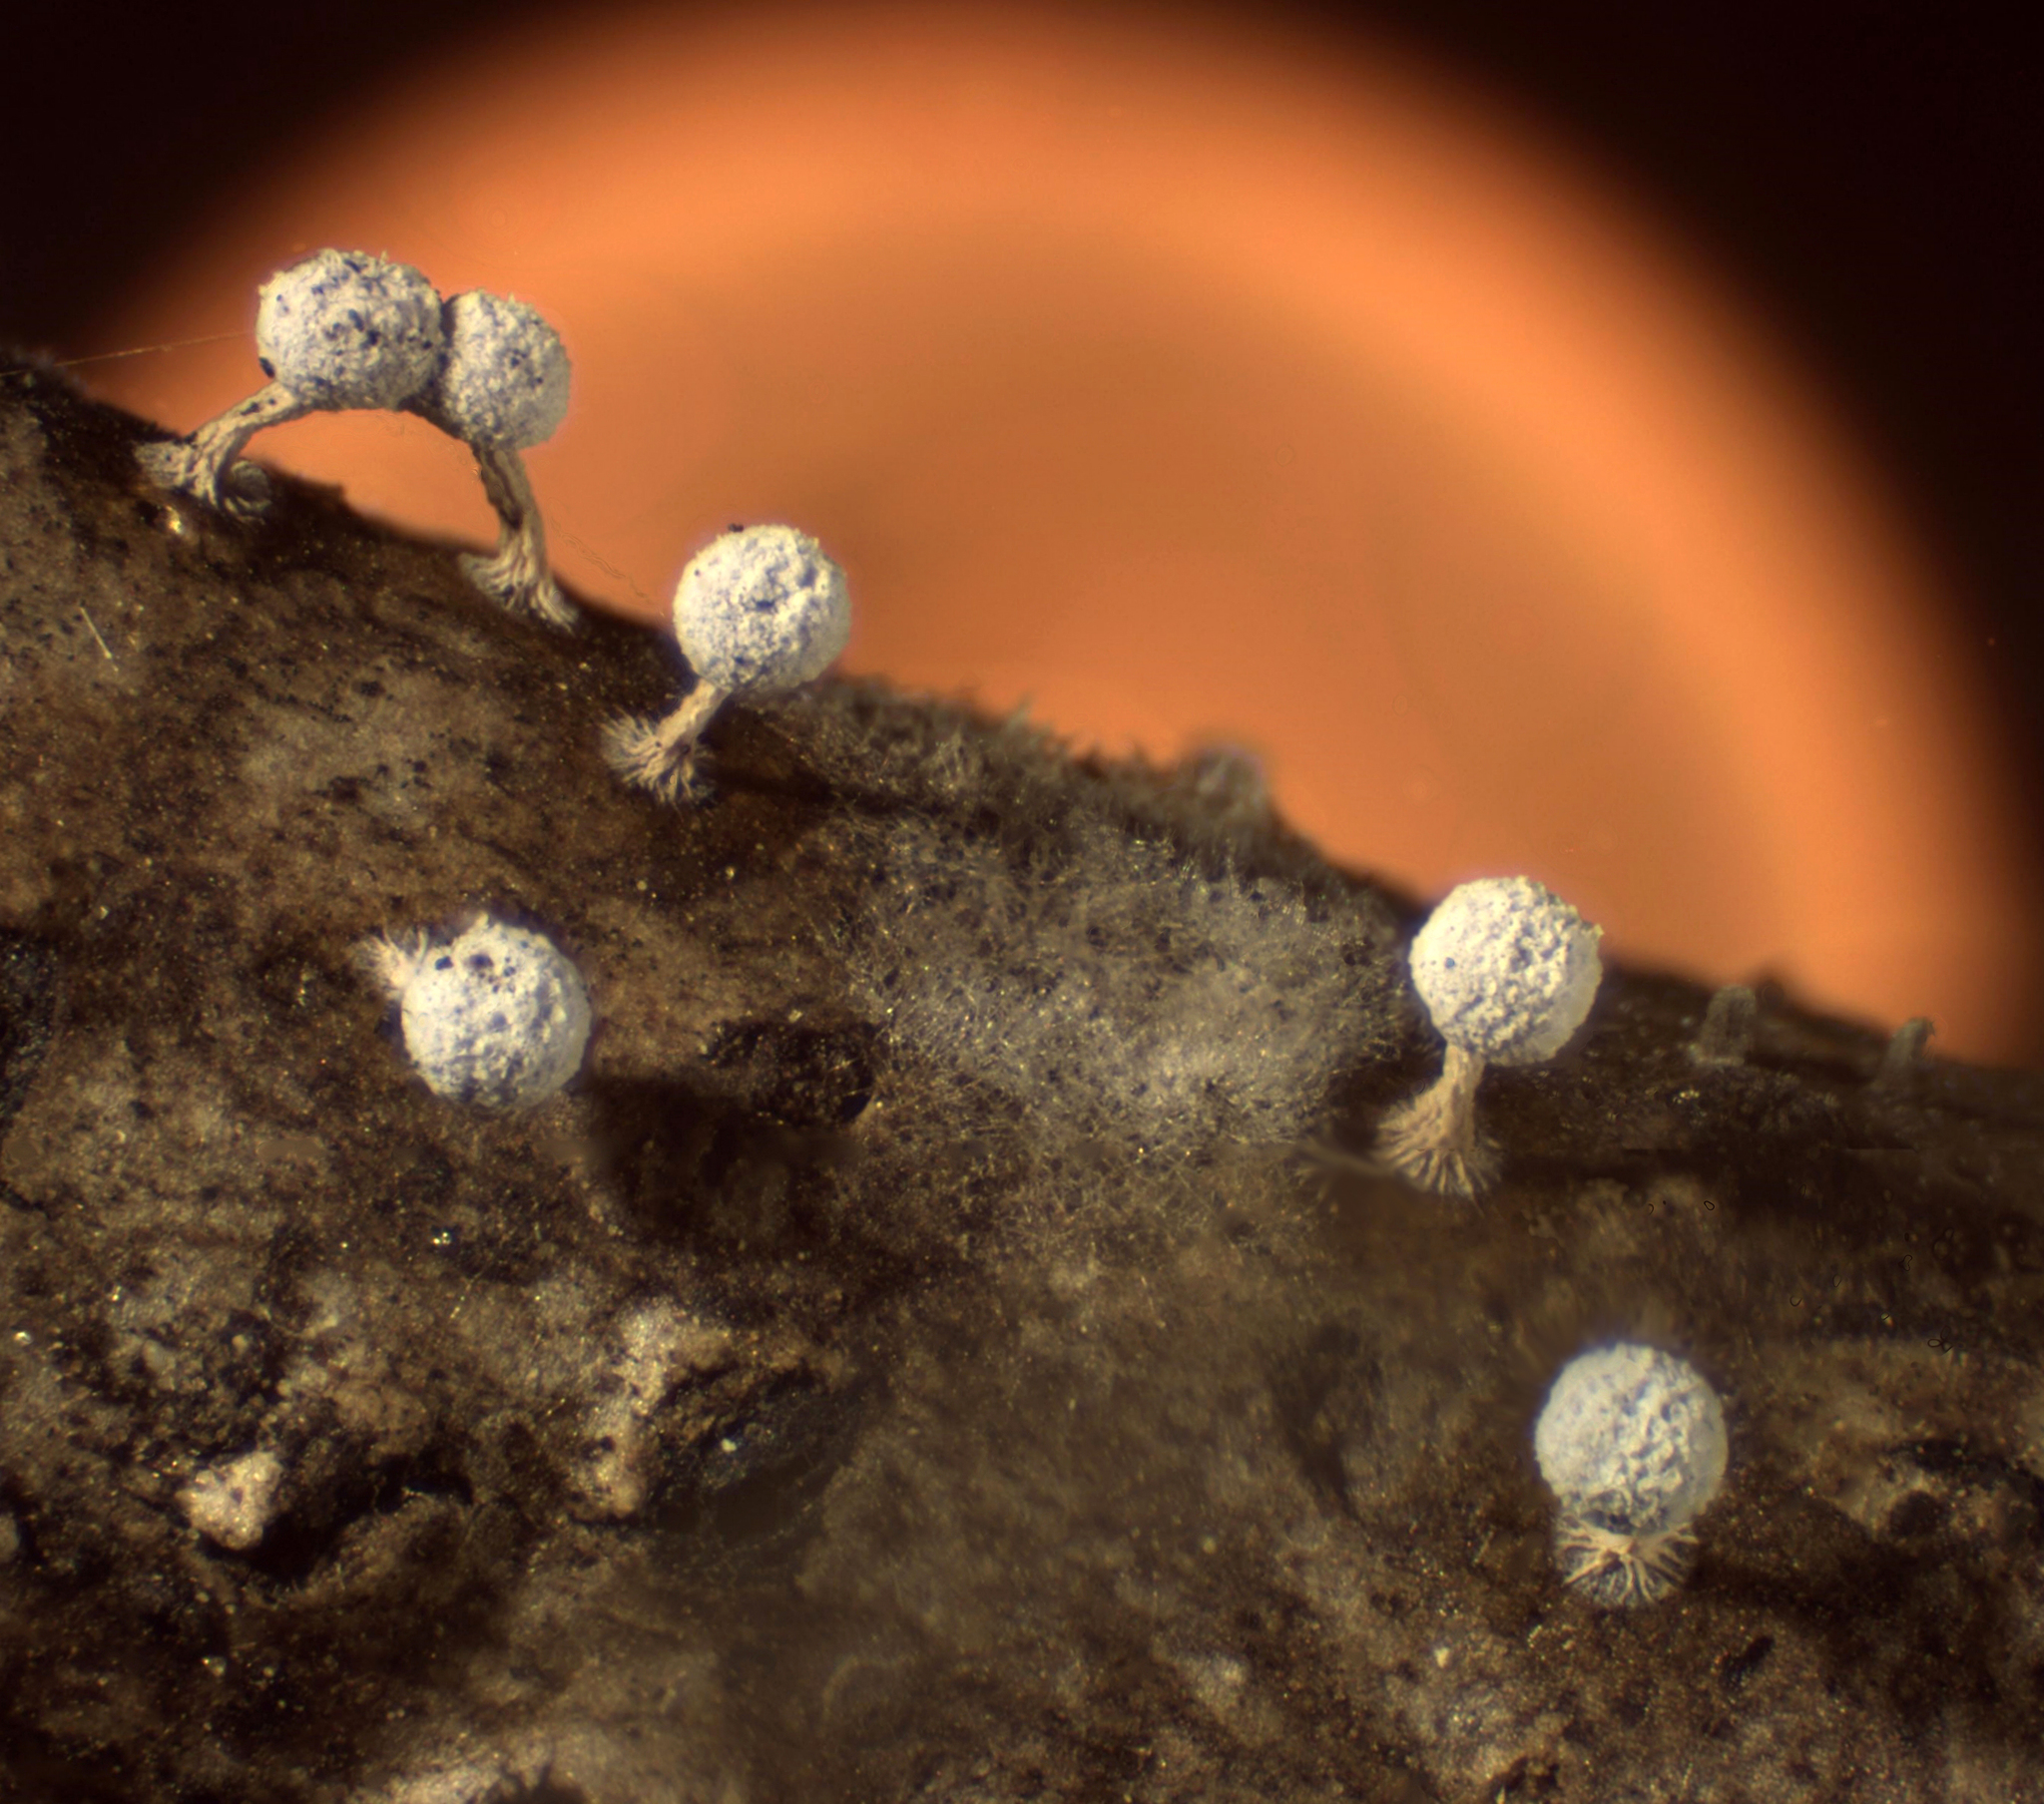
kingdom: Protozoa
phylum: Mycetozoa
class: Myxomycetes
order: Physarales
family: Didymiaceae
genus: Didymium
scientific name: Didymium squamulosum
